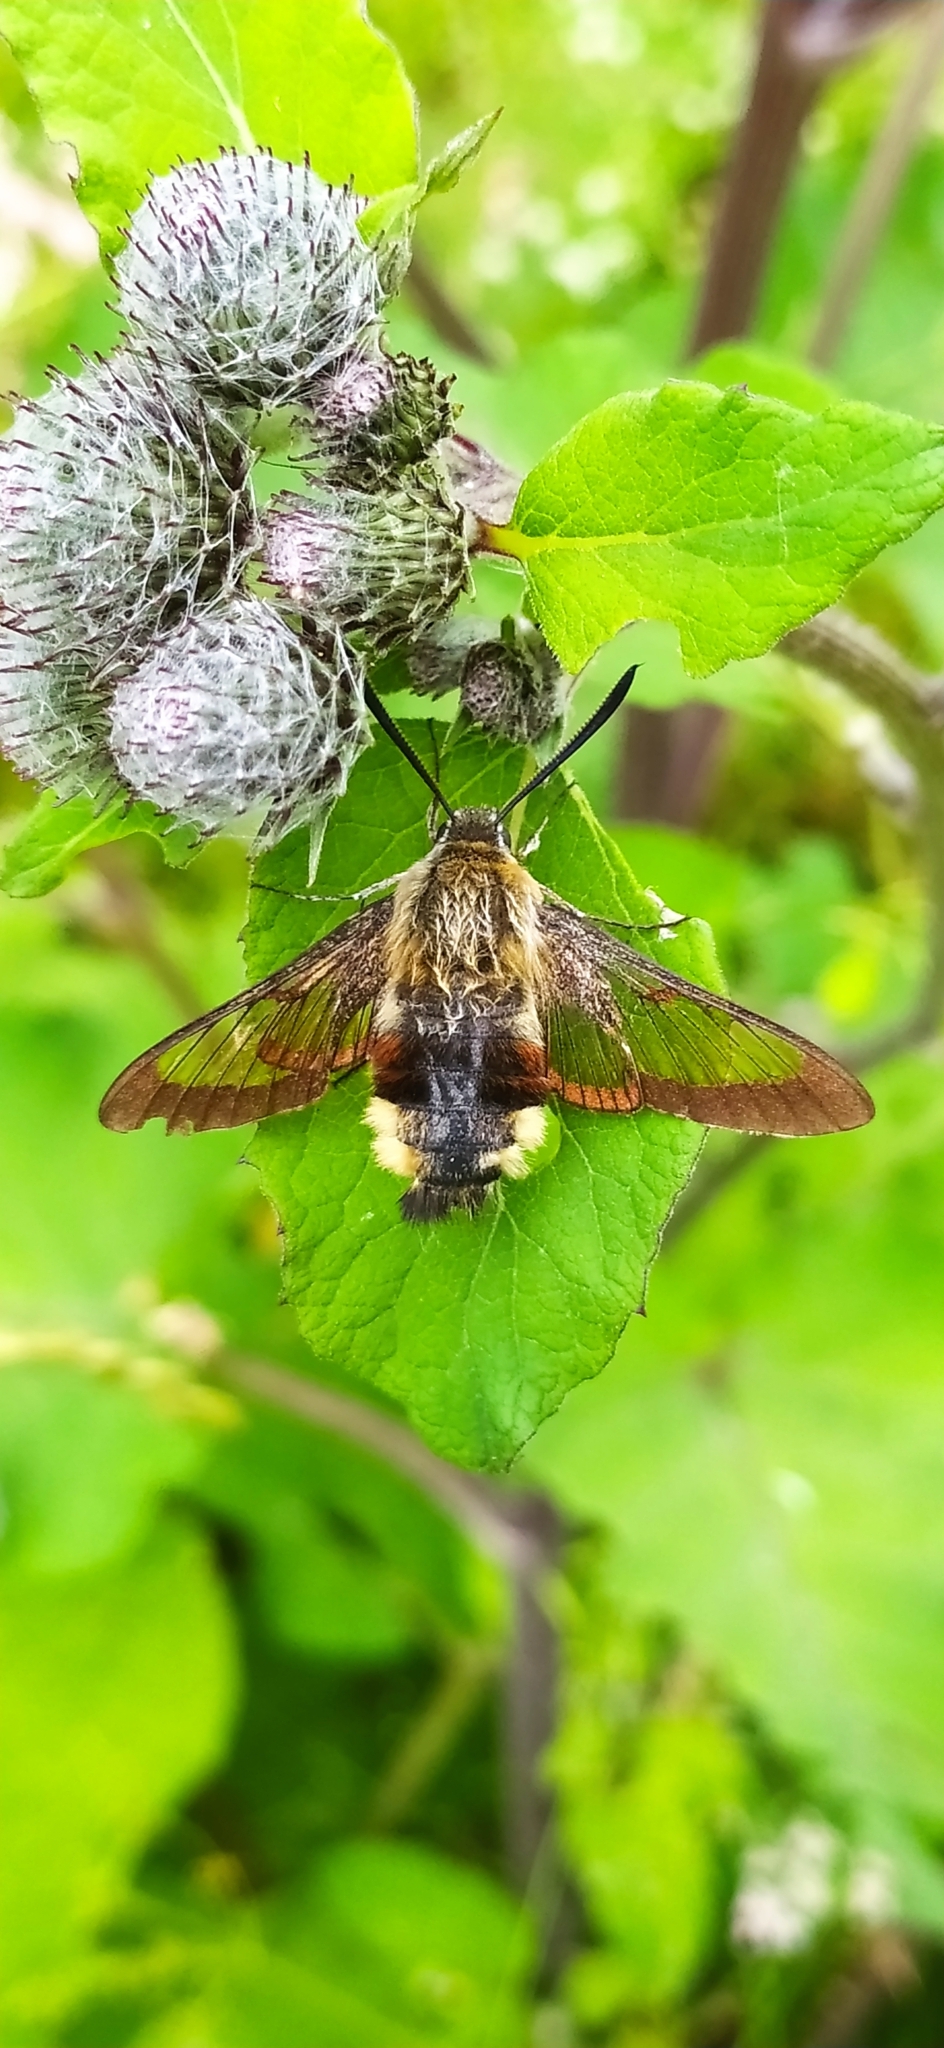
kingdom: Animalia
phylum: Arthropoda
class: Insecta
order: Lepidoptera
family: Sphingidae
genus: Hemaris
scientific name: Hemaris fuciformis
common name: Broad-bordered bee hawk-moth
